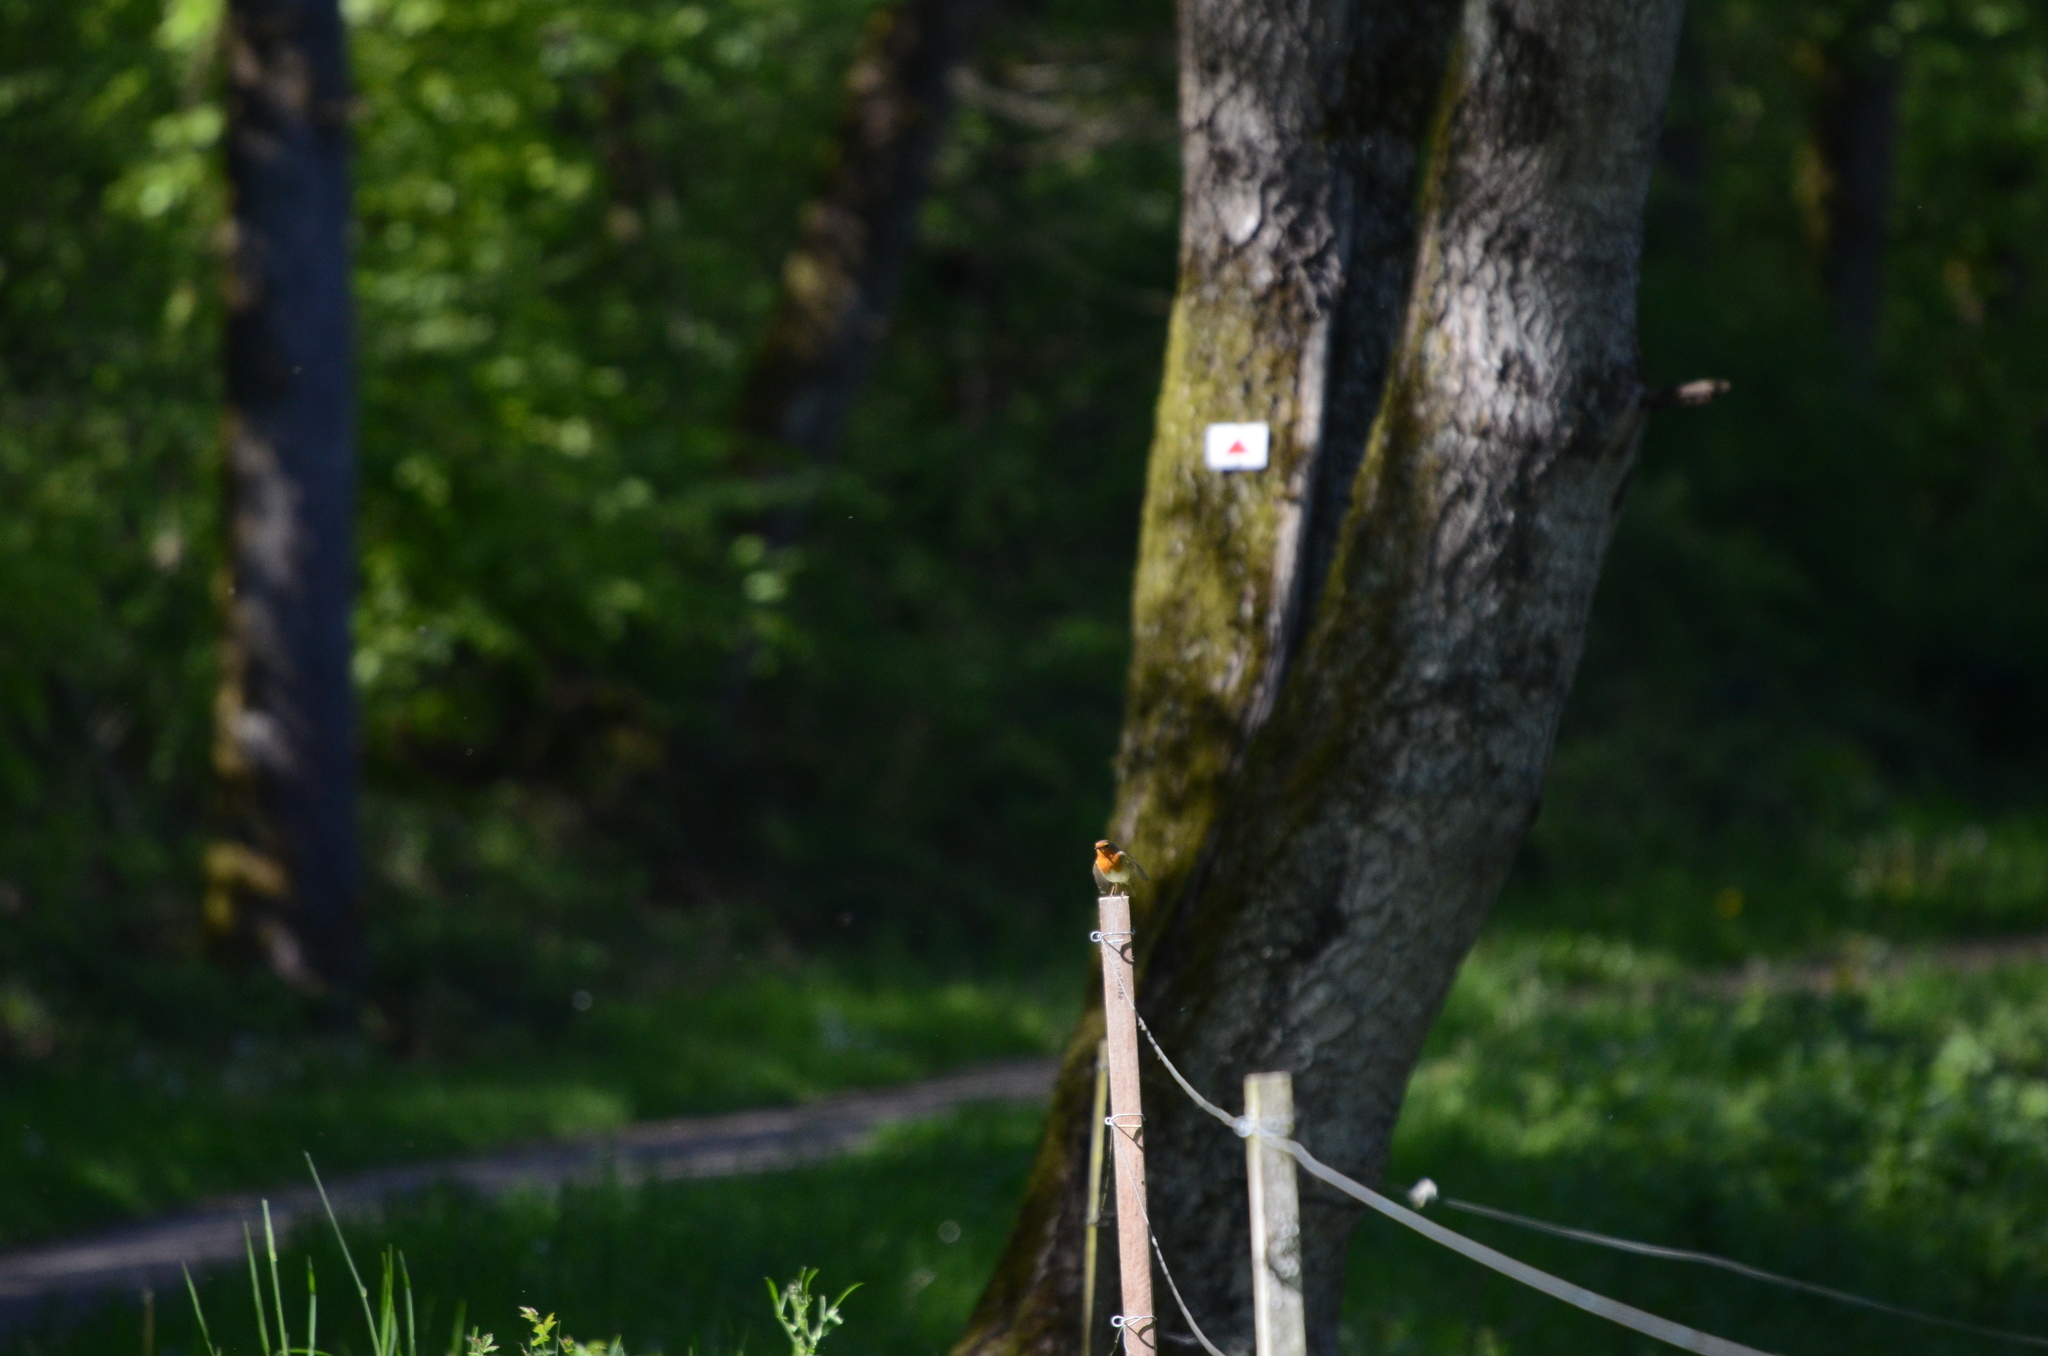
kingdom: Animalia
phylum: Chordata
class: Aves
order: Passeriformes
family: Muscicapidae
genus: Erithacus
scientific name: Erithacus rubecula
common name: European robin
